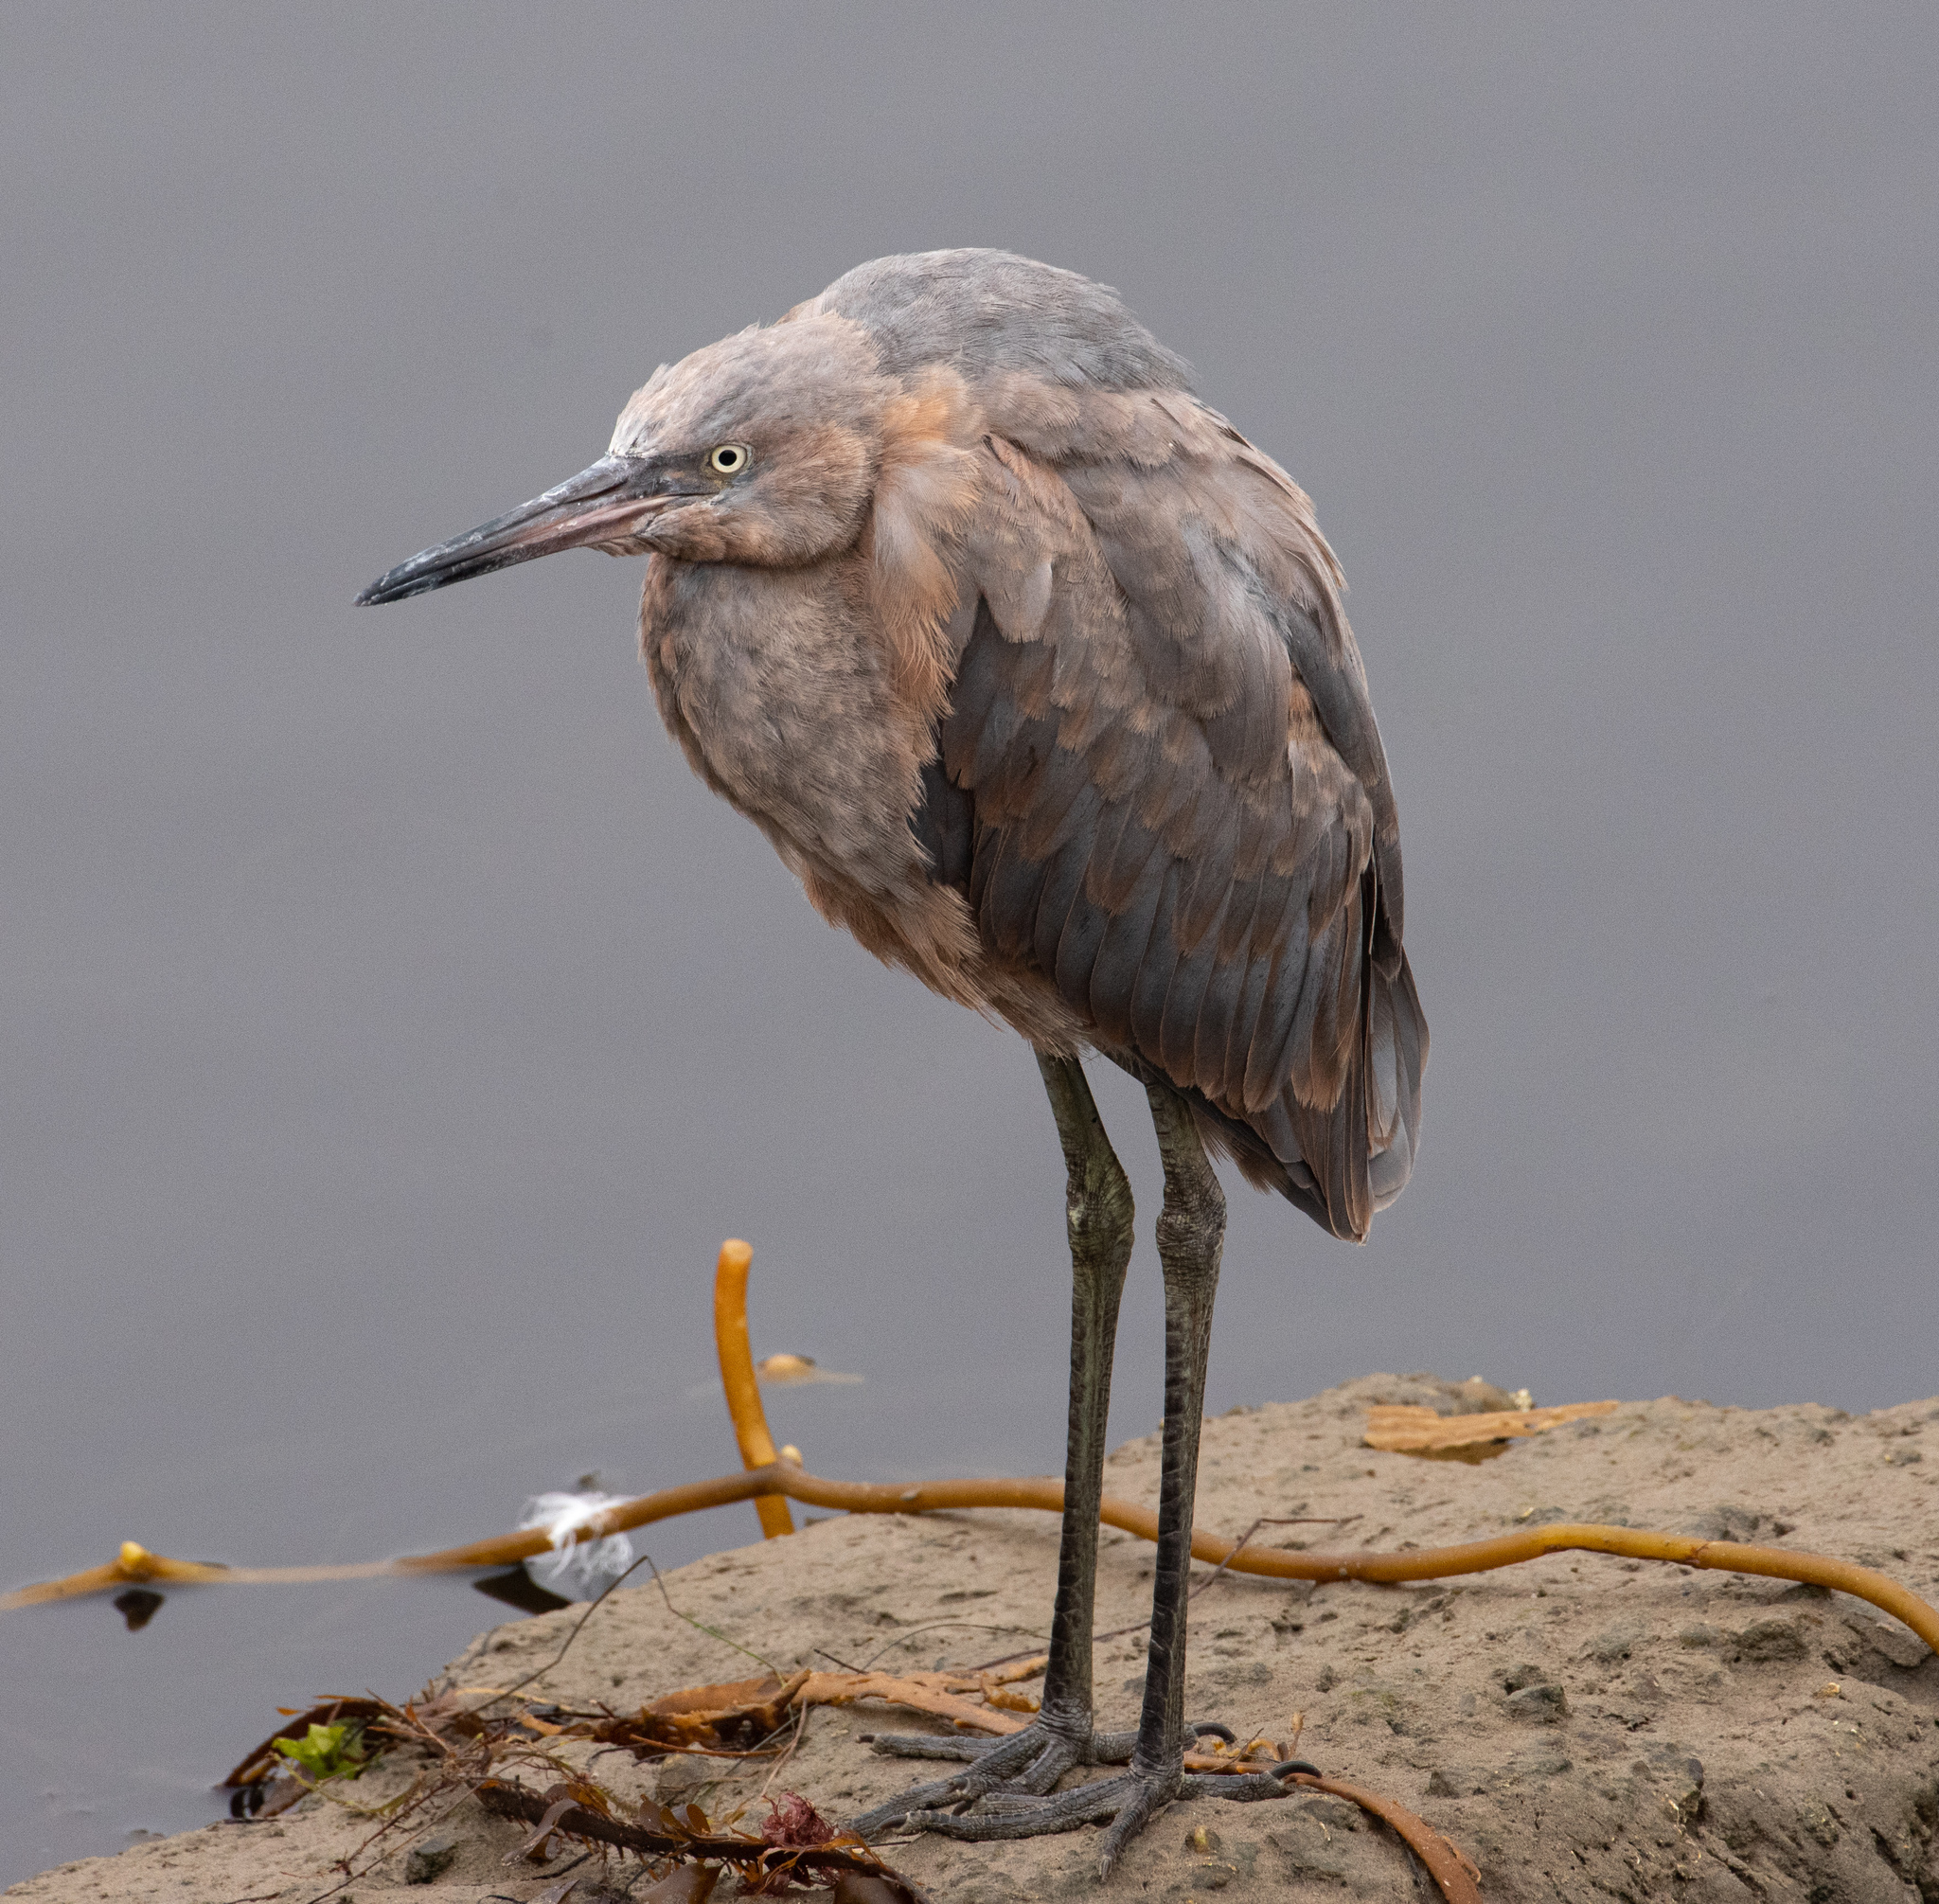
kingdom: Animalia
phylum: Chordata
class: Aves
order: Pelecaniformes
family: Ardeidae
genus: Egretta
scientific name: Egretta rufescens
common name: Reddish egret
